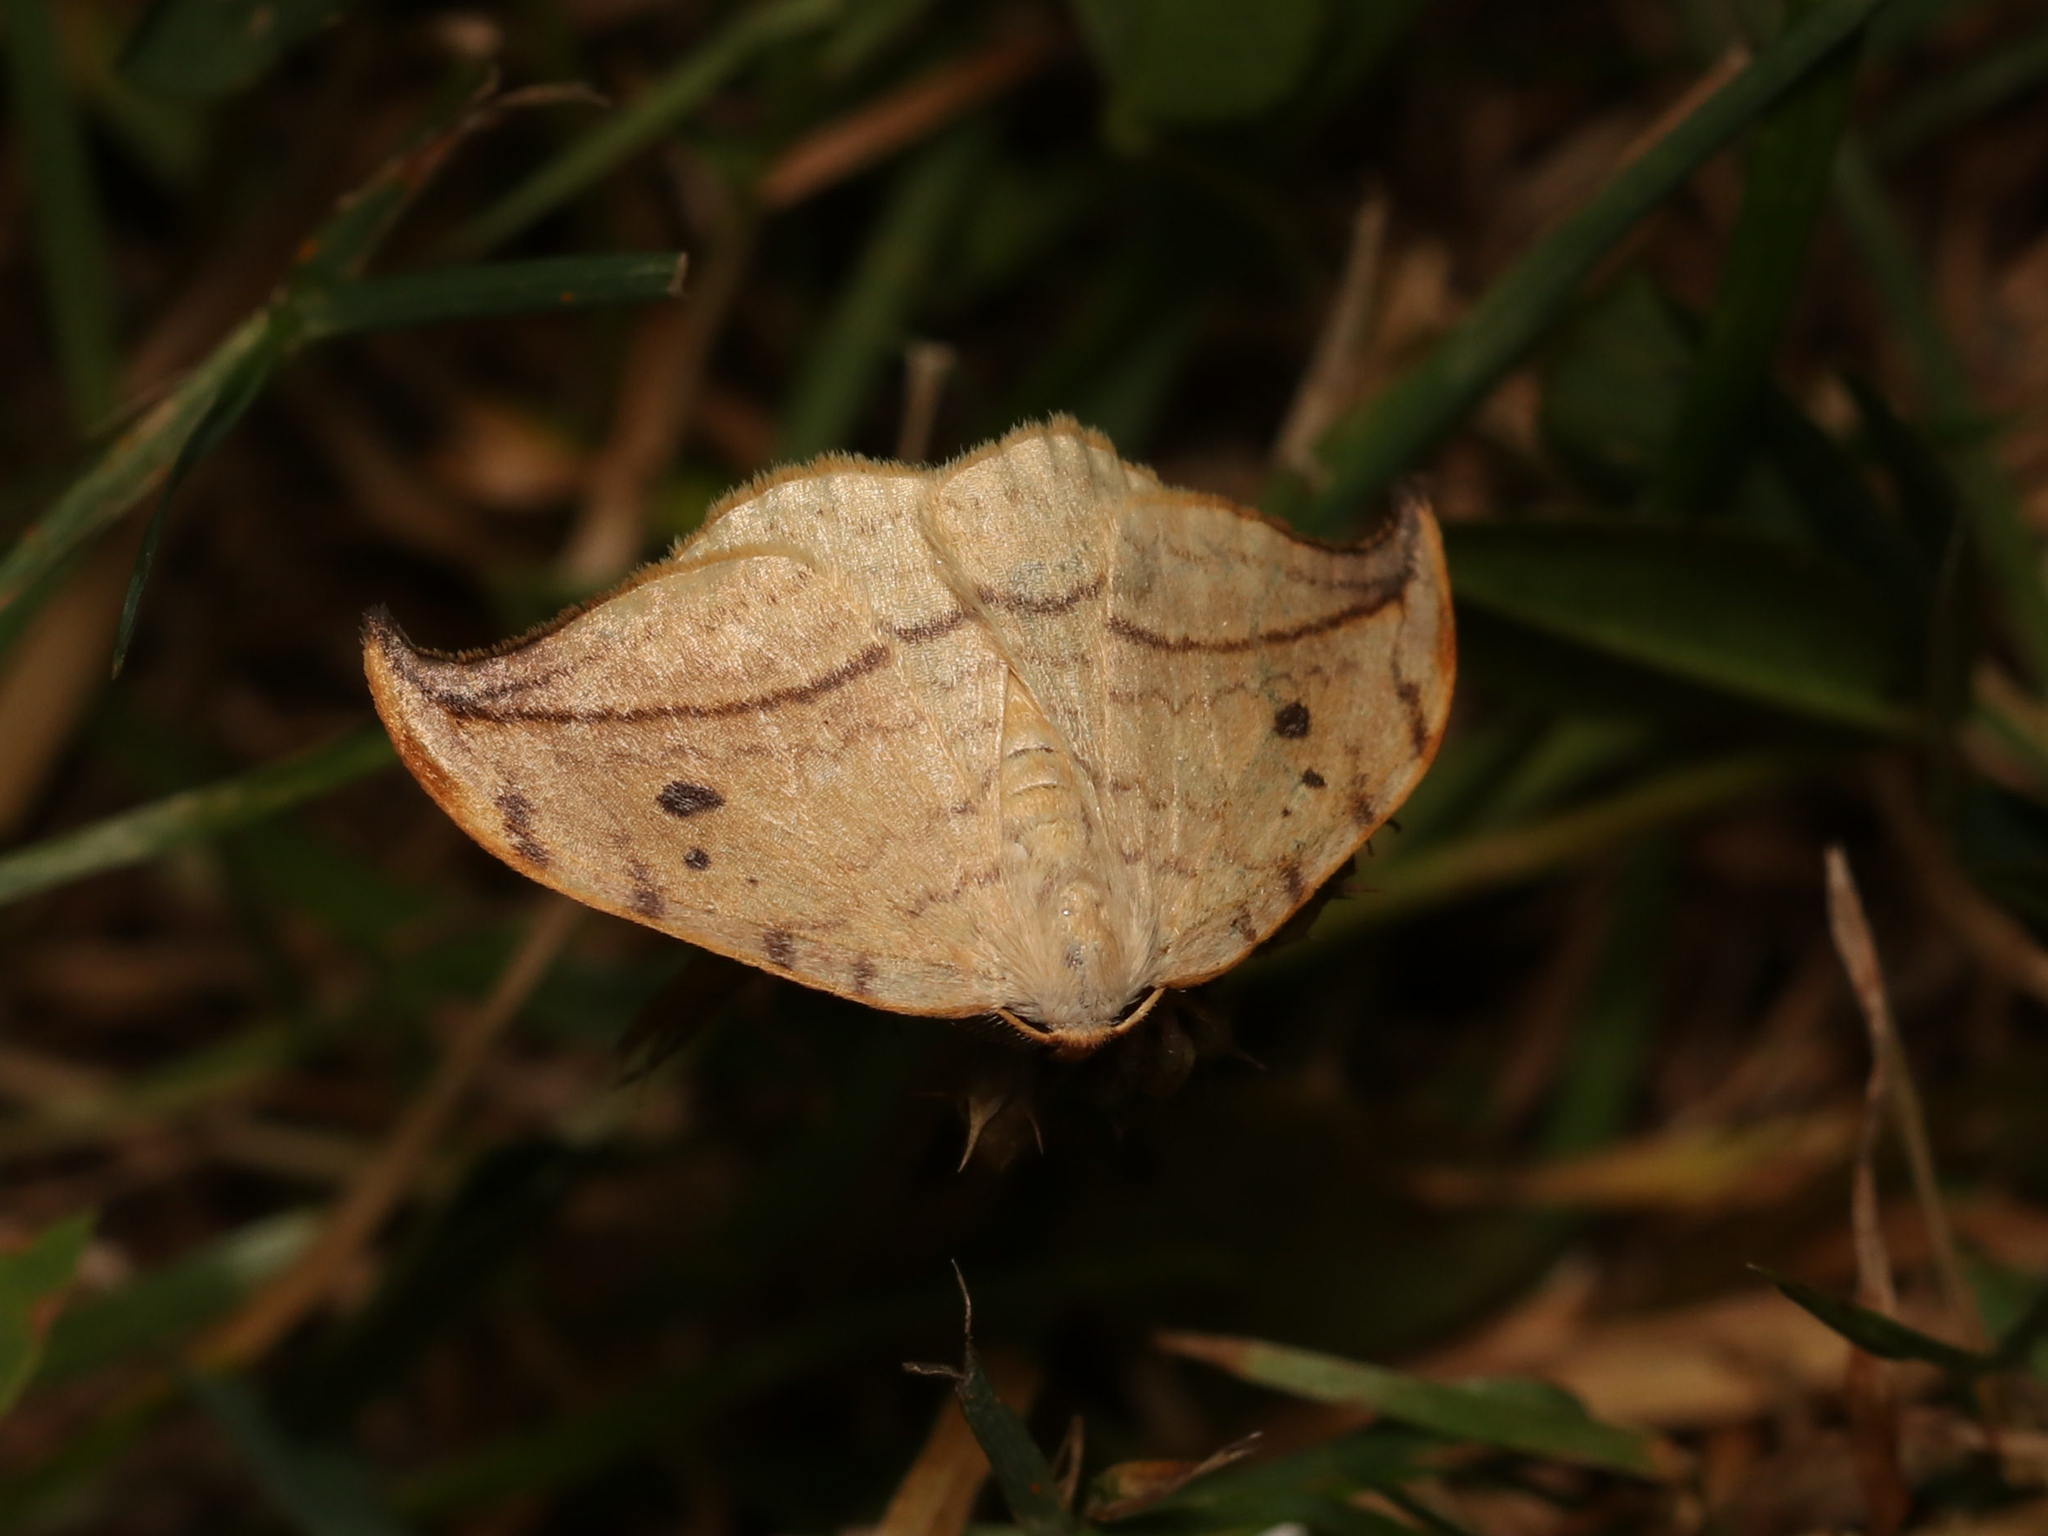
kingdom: Animalia
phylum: Arthropoda
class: Insecta
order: Lepidoptera
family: Drepanidae
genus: Drepana
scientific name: Drepana arcuata
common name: Arched hooktip moth
